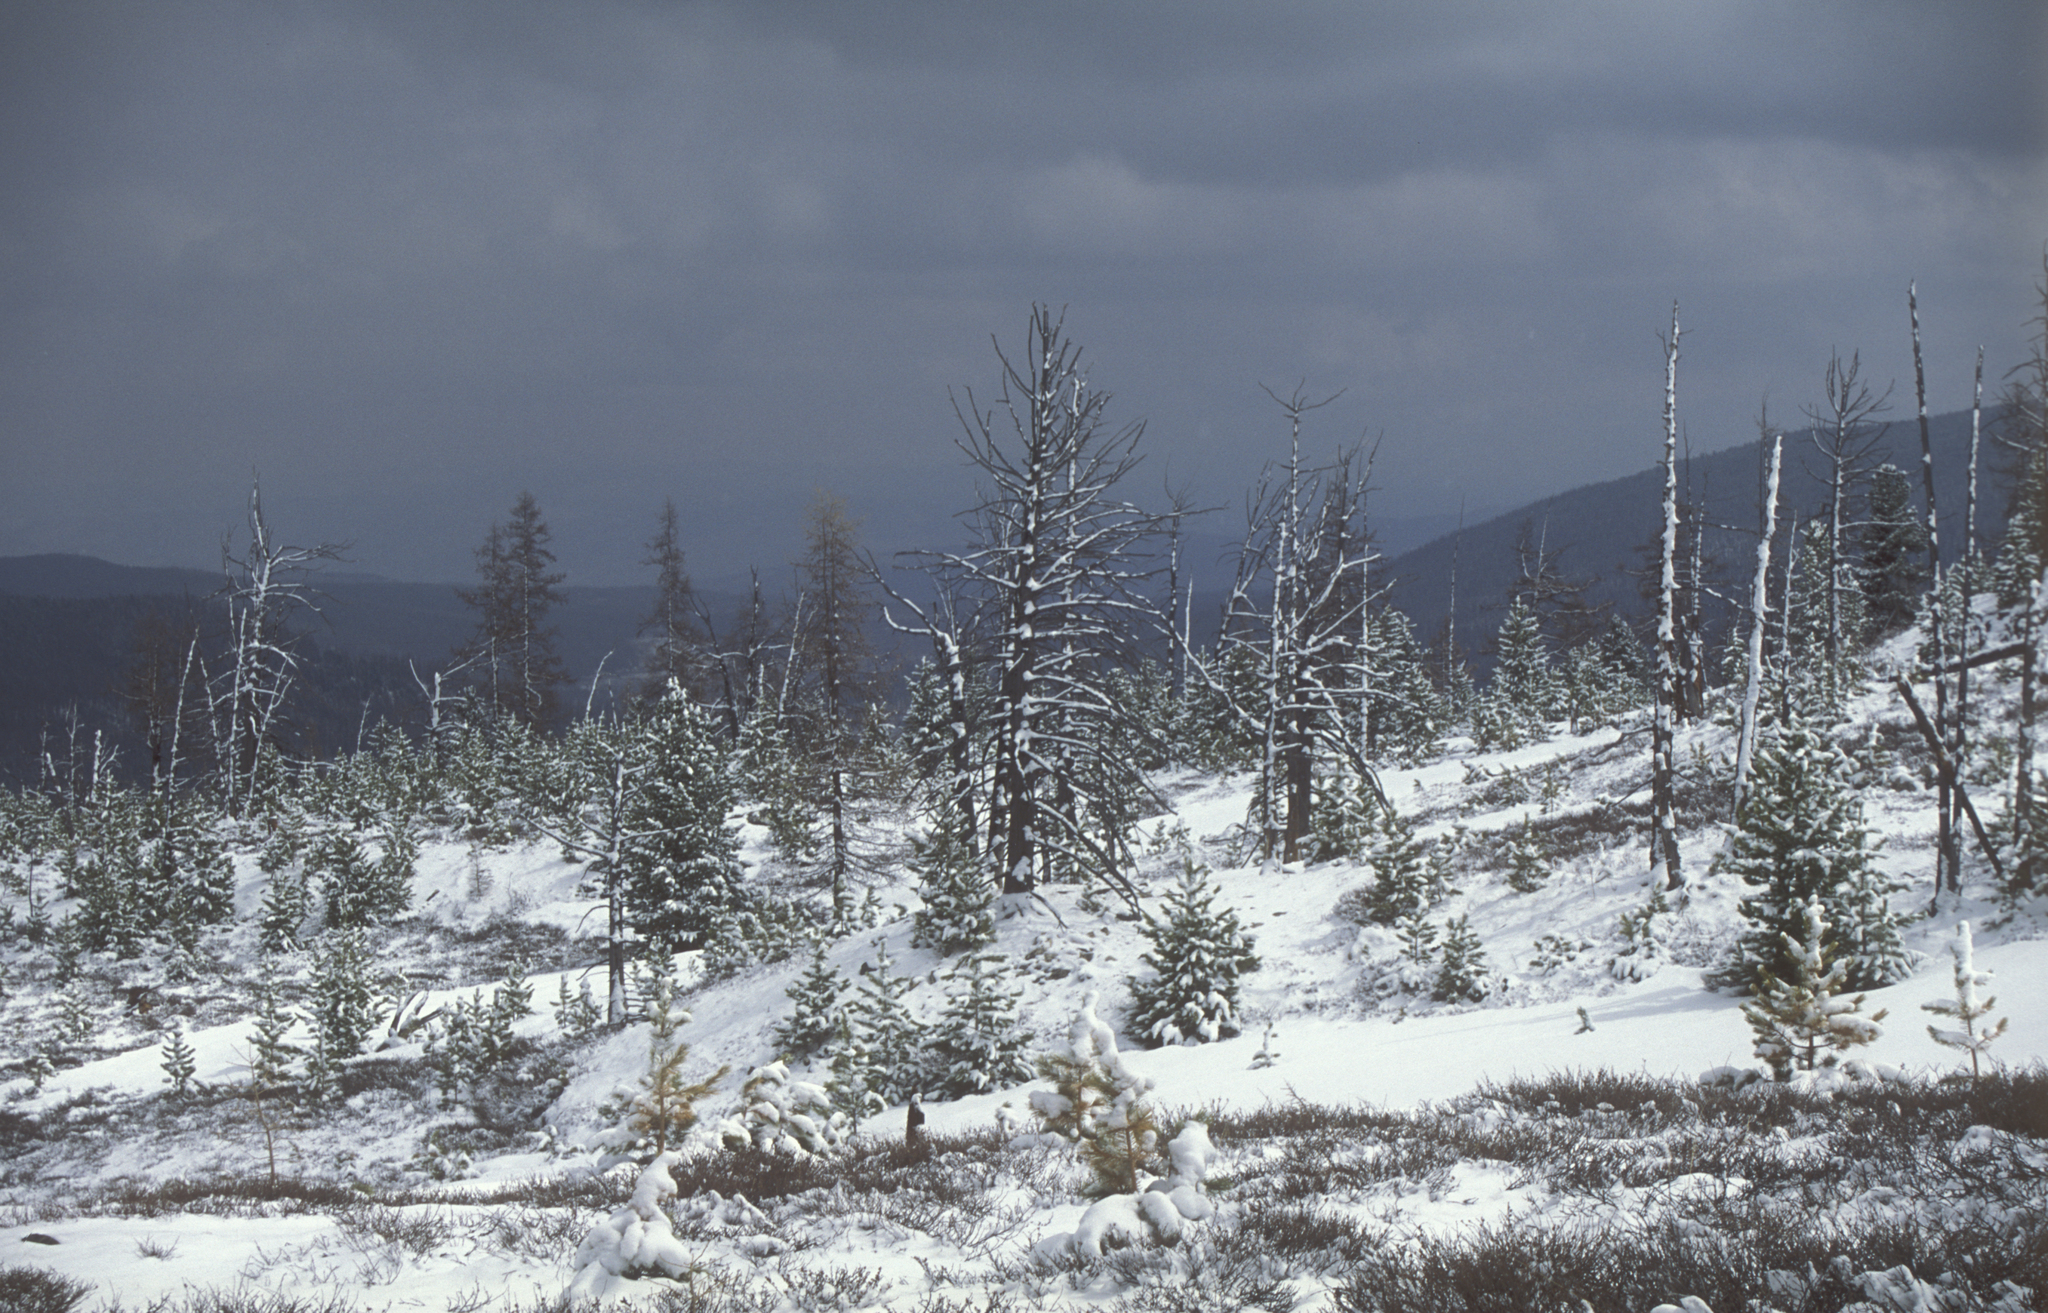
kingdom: Plantae
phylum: Tracheophyta
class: Pinopsida
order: Pinales
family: Pinaceae
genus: Picea
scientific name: Picea obovata
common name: Siberian spruce
